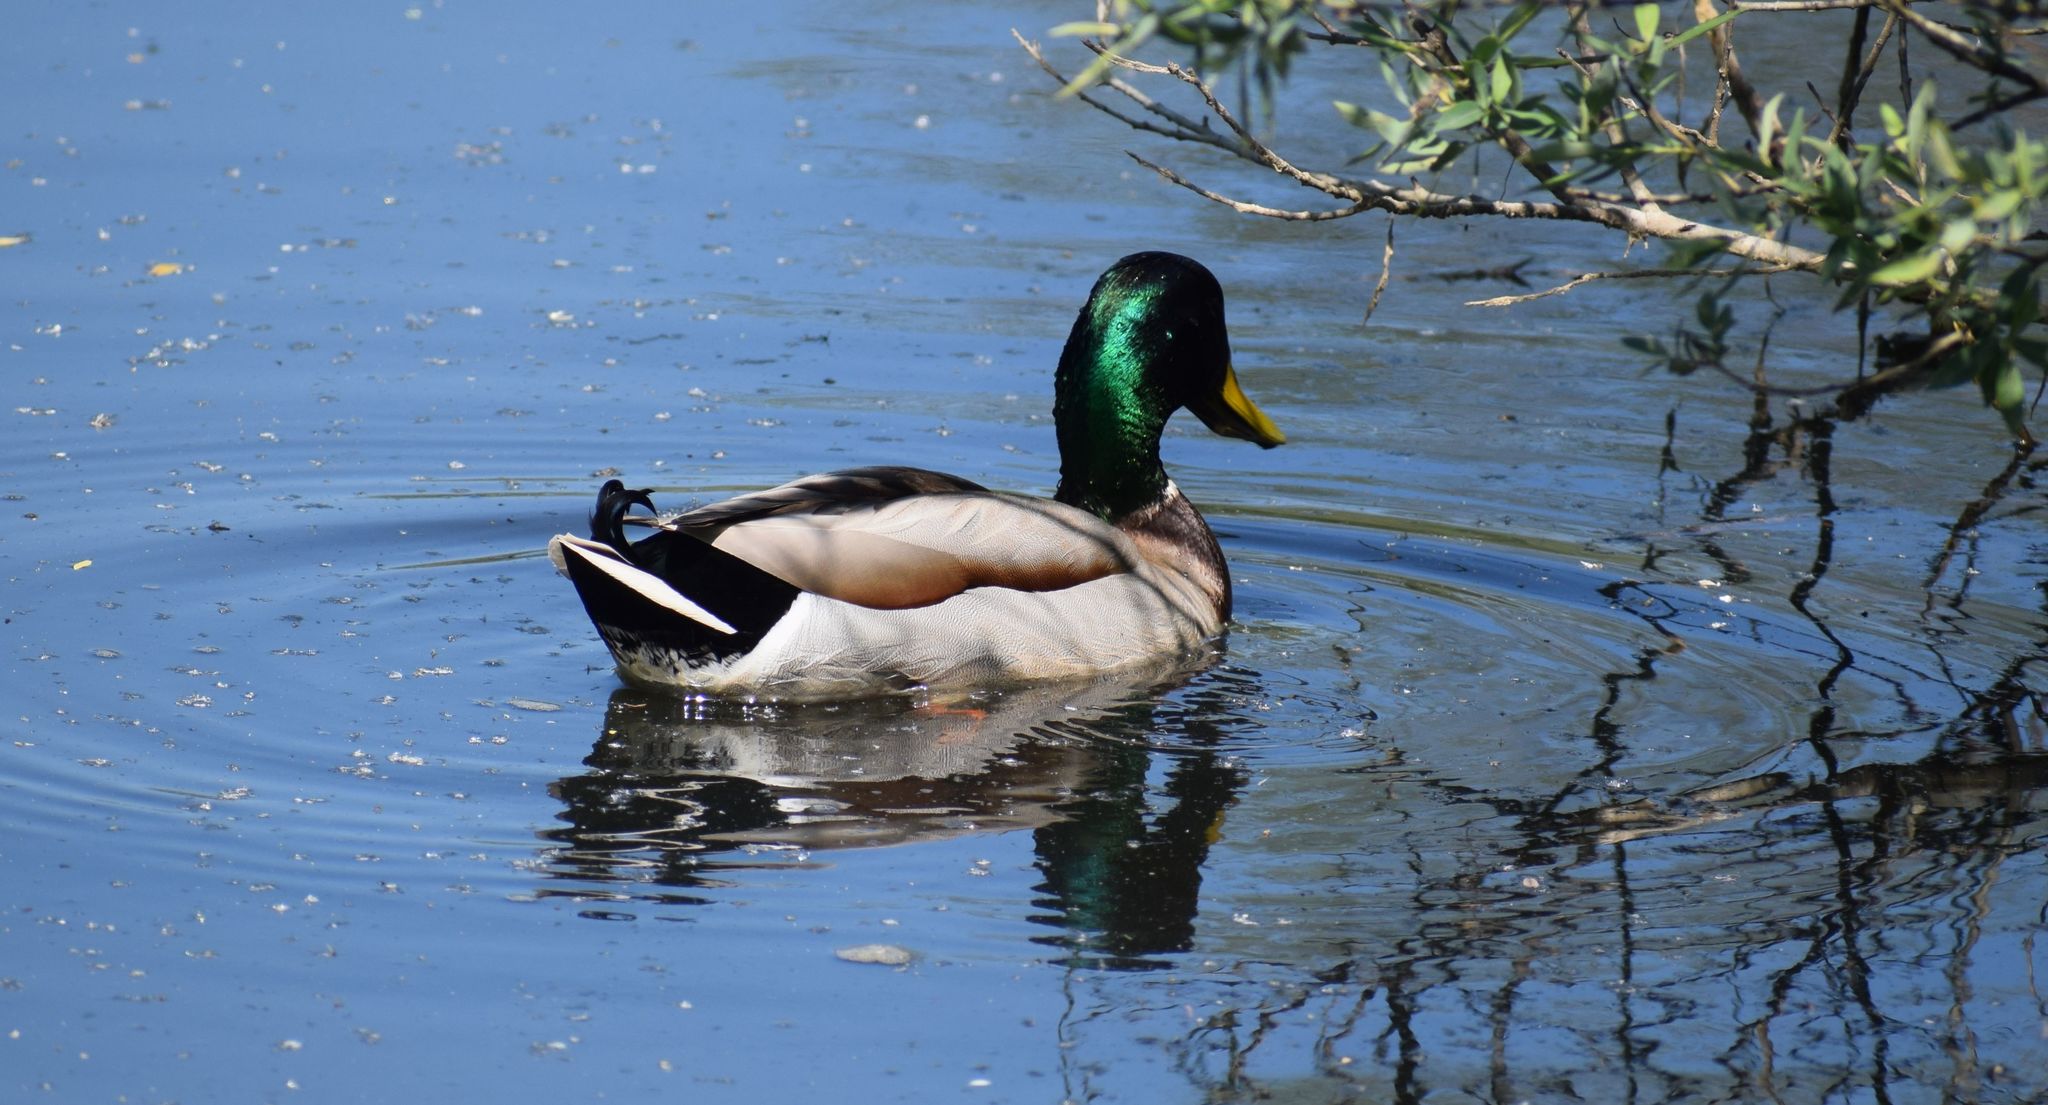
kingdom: Animalia
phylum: Chordata
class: Aves
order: Anseriformes
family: Anatidae
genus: Anas
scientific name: Anas platyrhynchos
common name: Mallard
